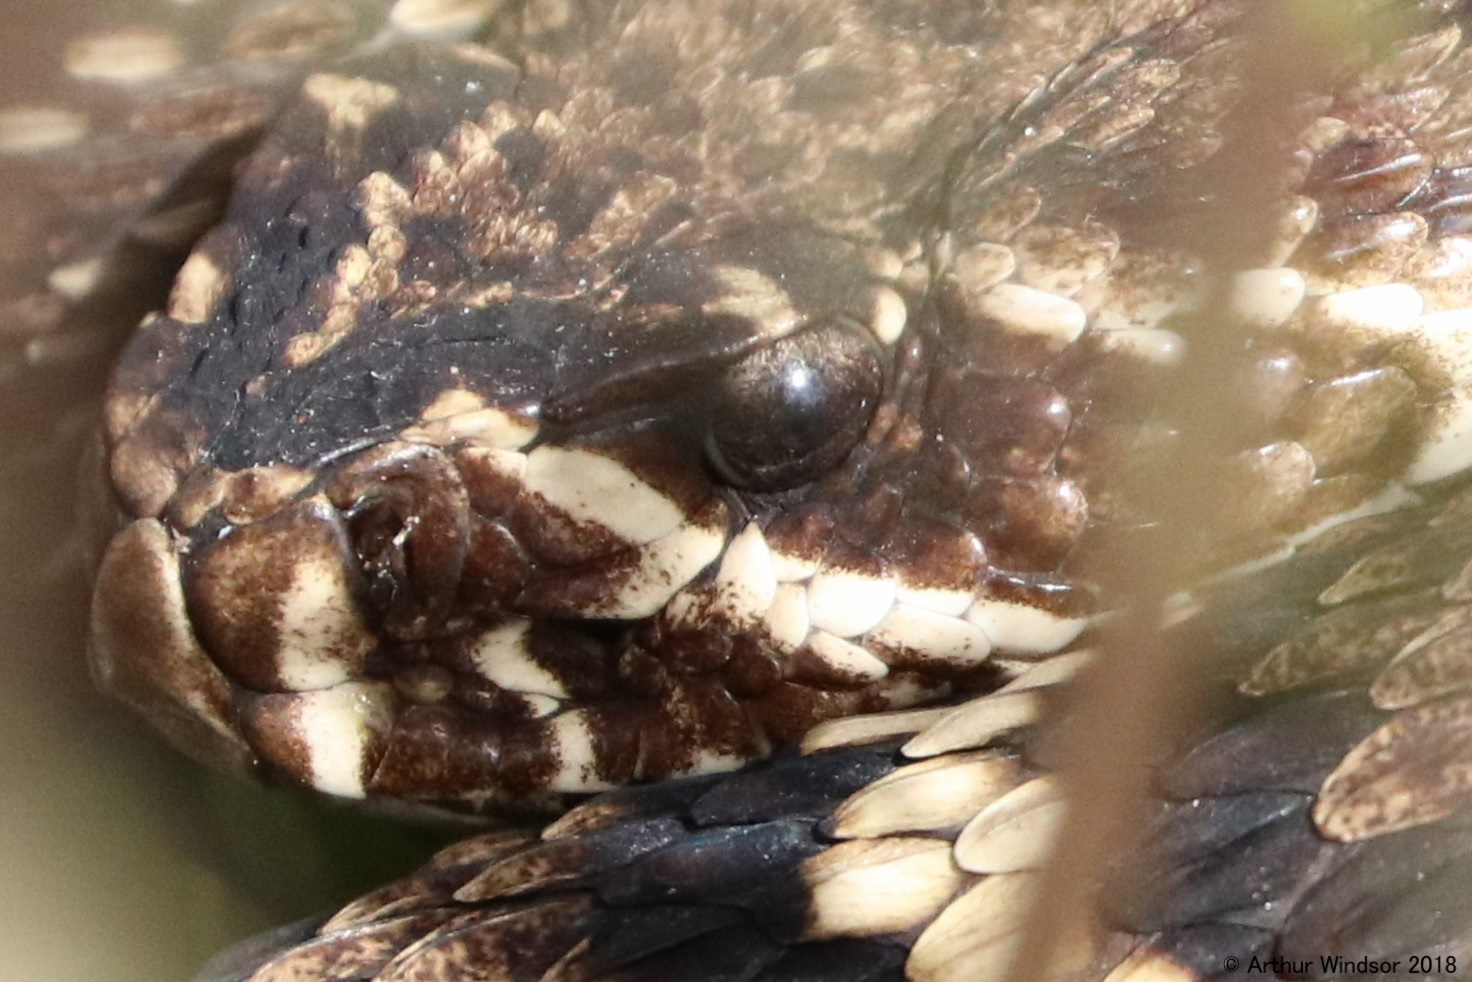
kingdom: Animalia
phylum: Chordata
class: Squamata
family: Viperidae
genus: Crotalus
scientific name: Crotalus adamanteus
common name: Eastern diamondback rattlesnake
